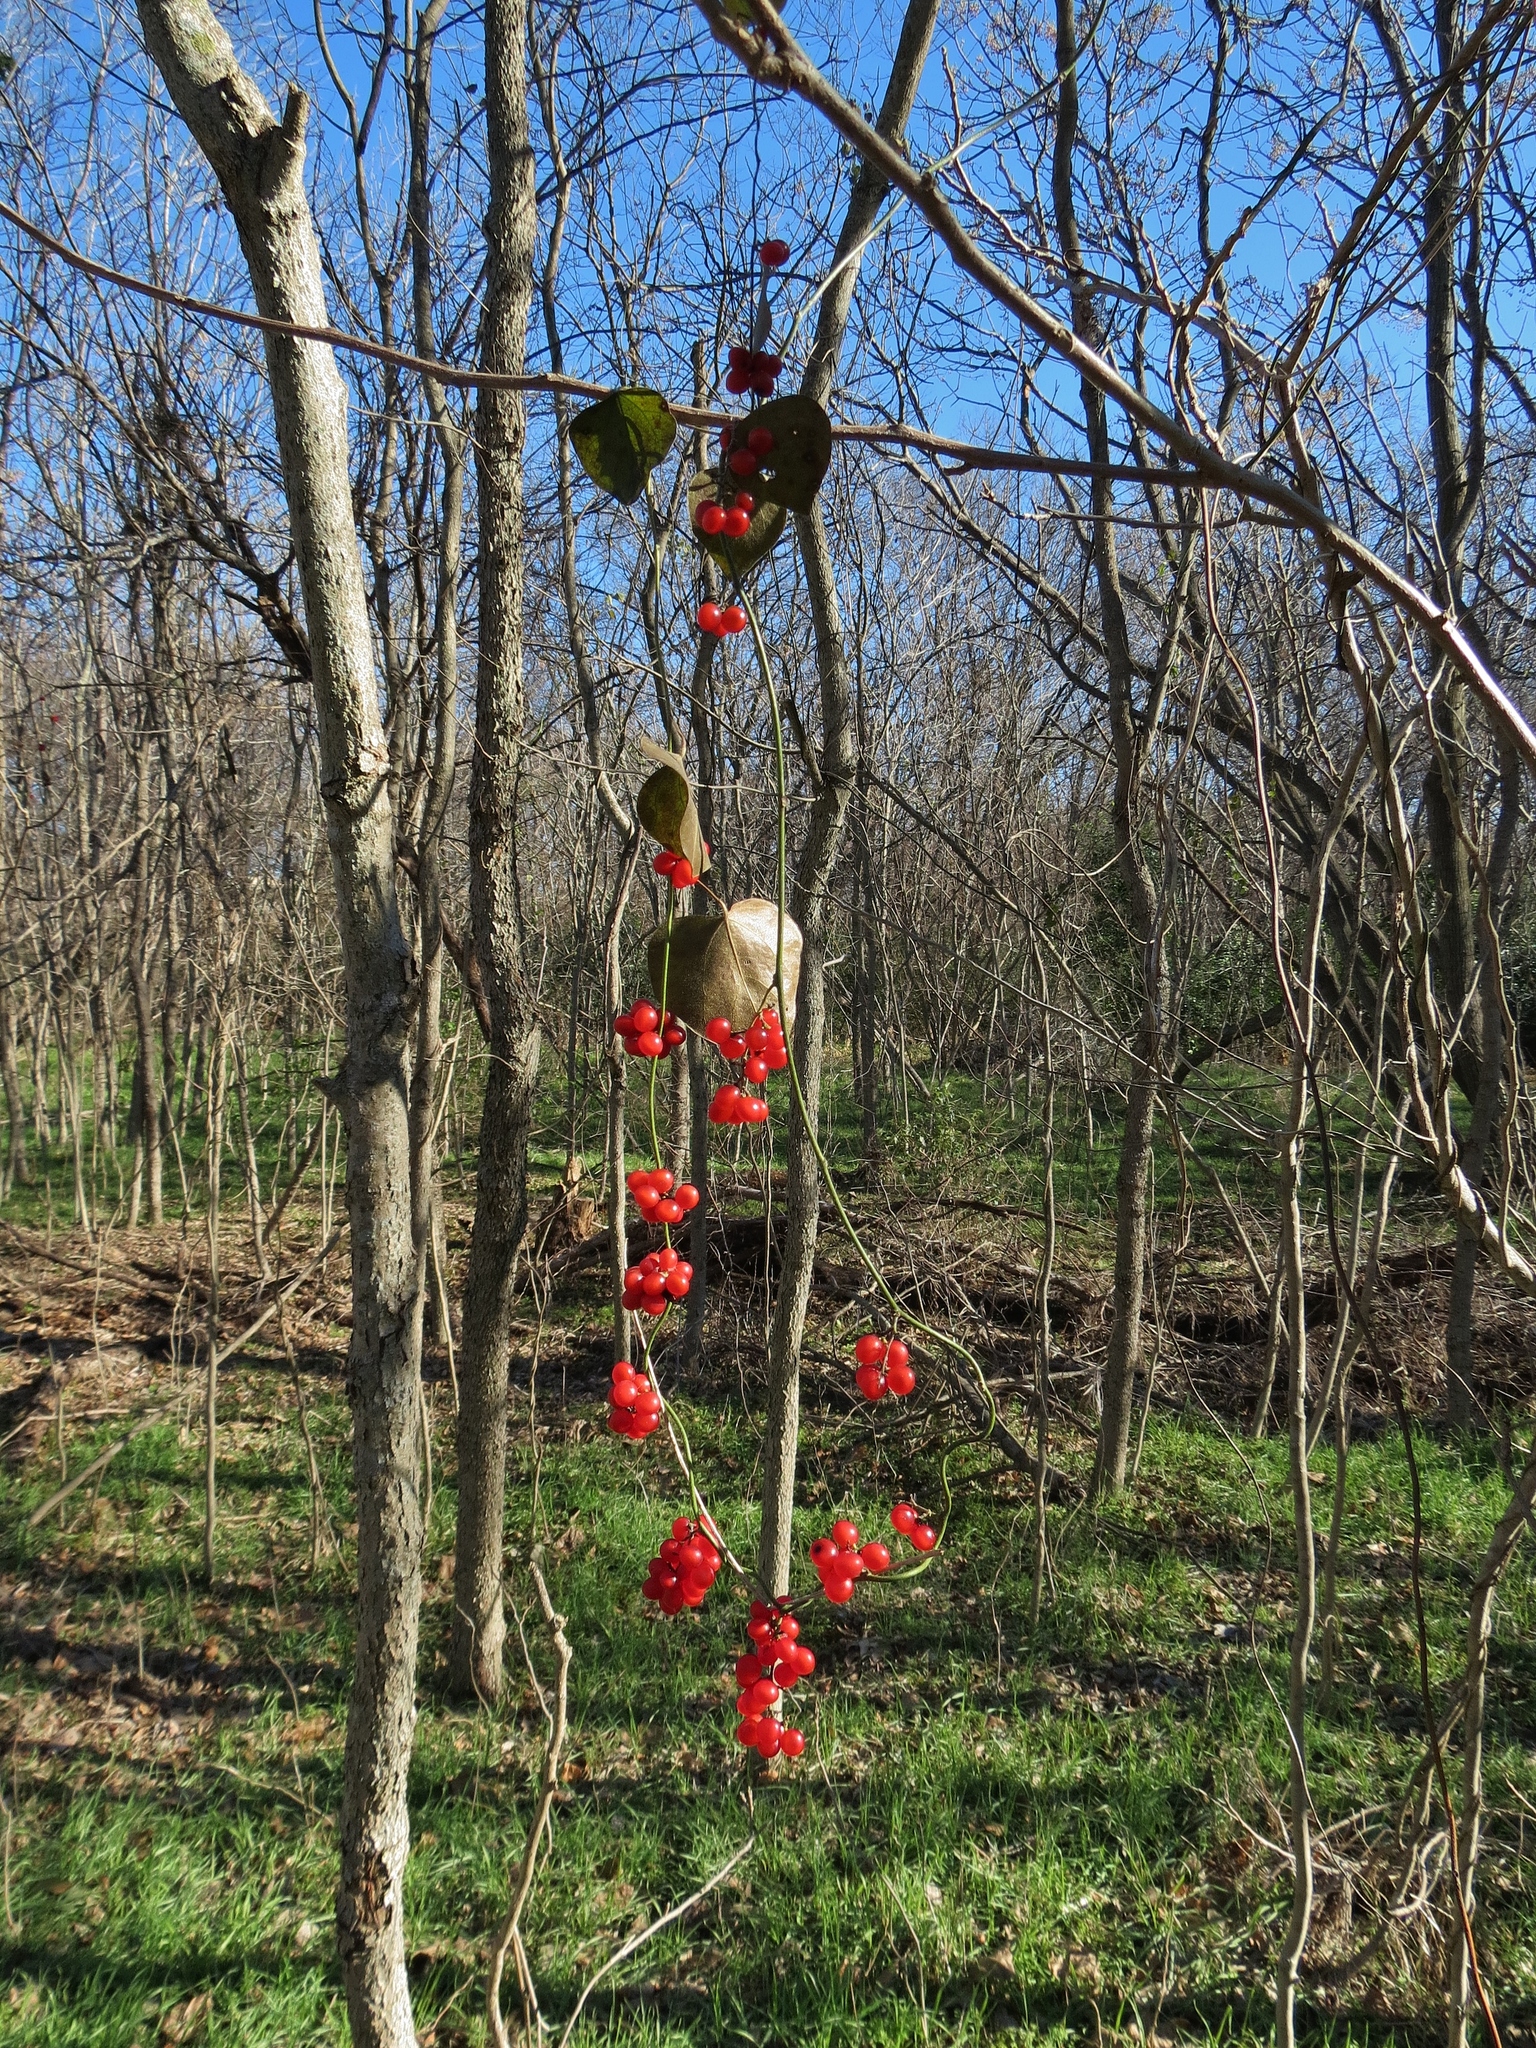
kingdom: Plantae
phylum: Tracheophyta
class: Magnoliopsida
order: Ranunculales
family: Menispermaceae
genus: Cocculus
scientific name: Cocculus carolinus
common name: Carolina moonseed
